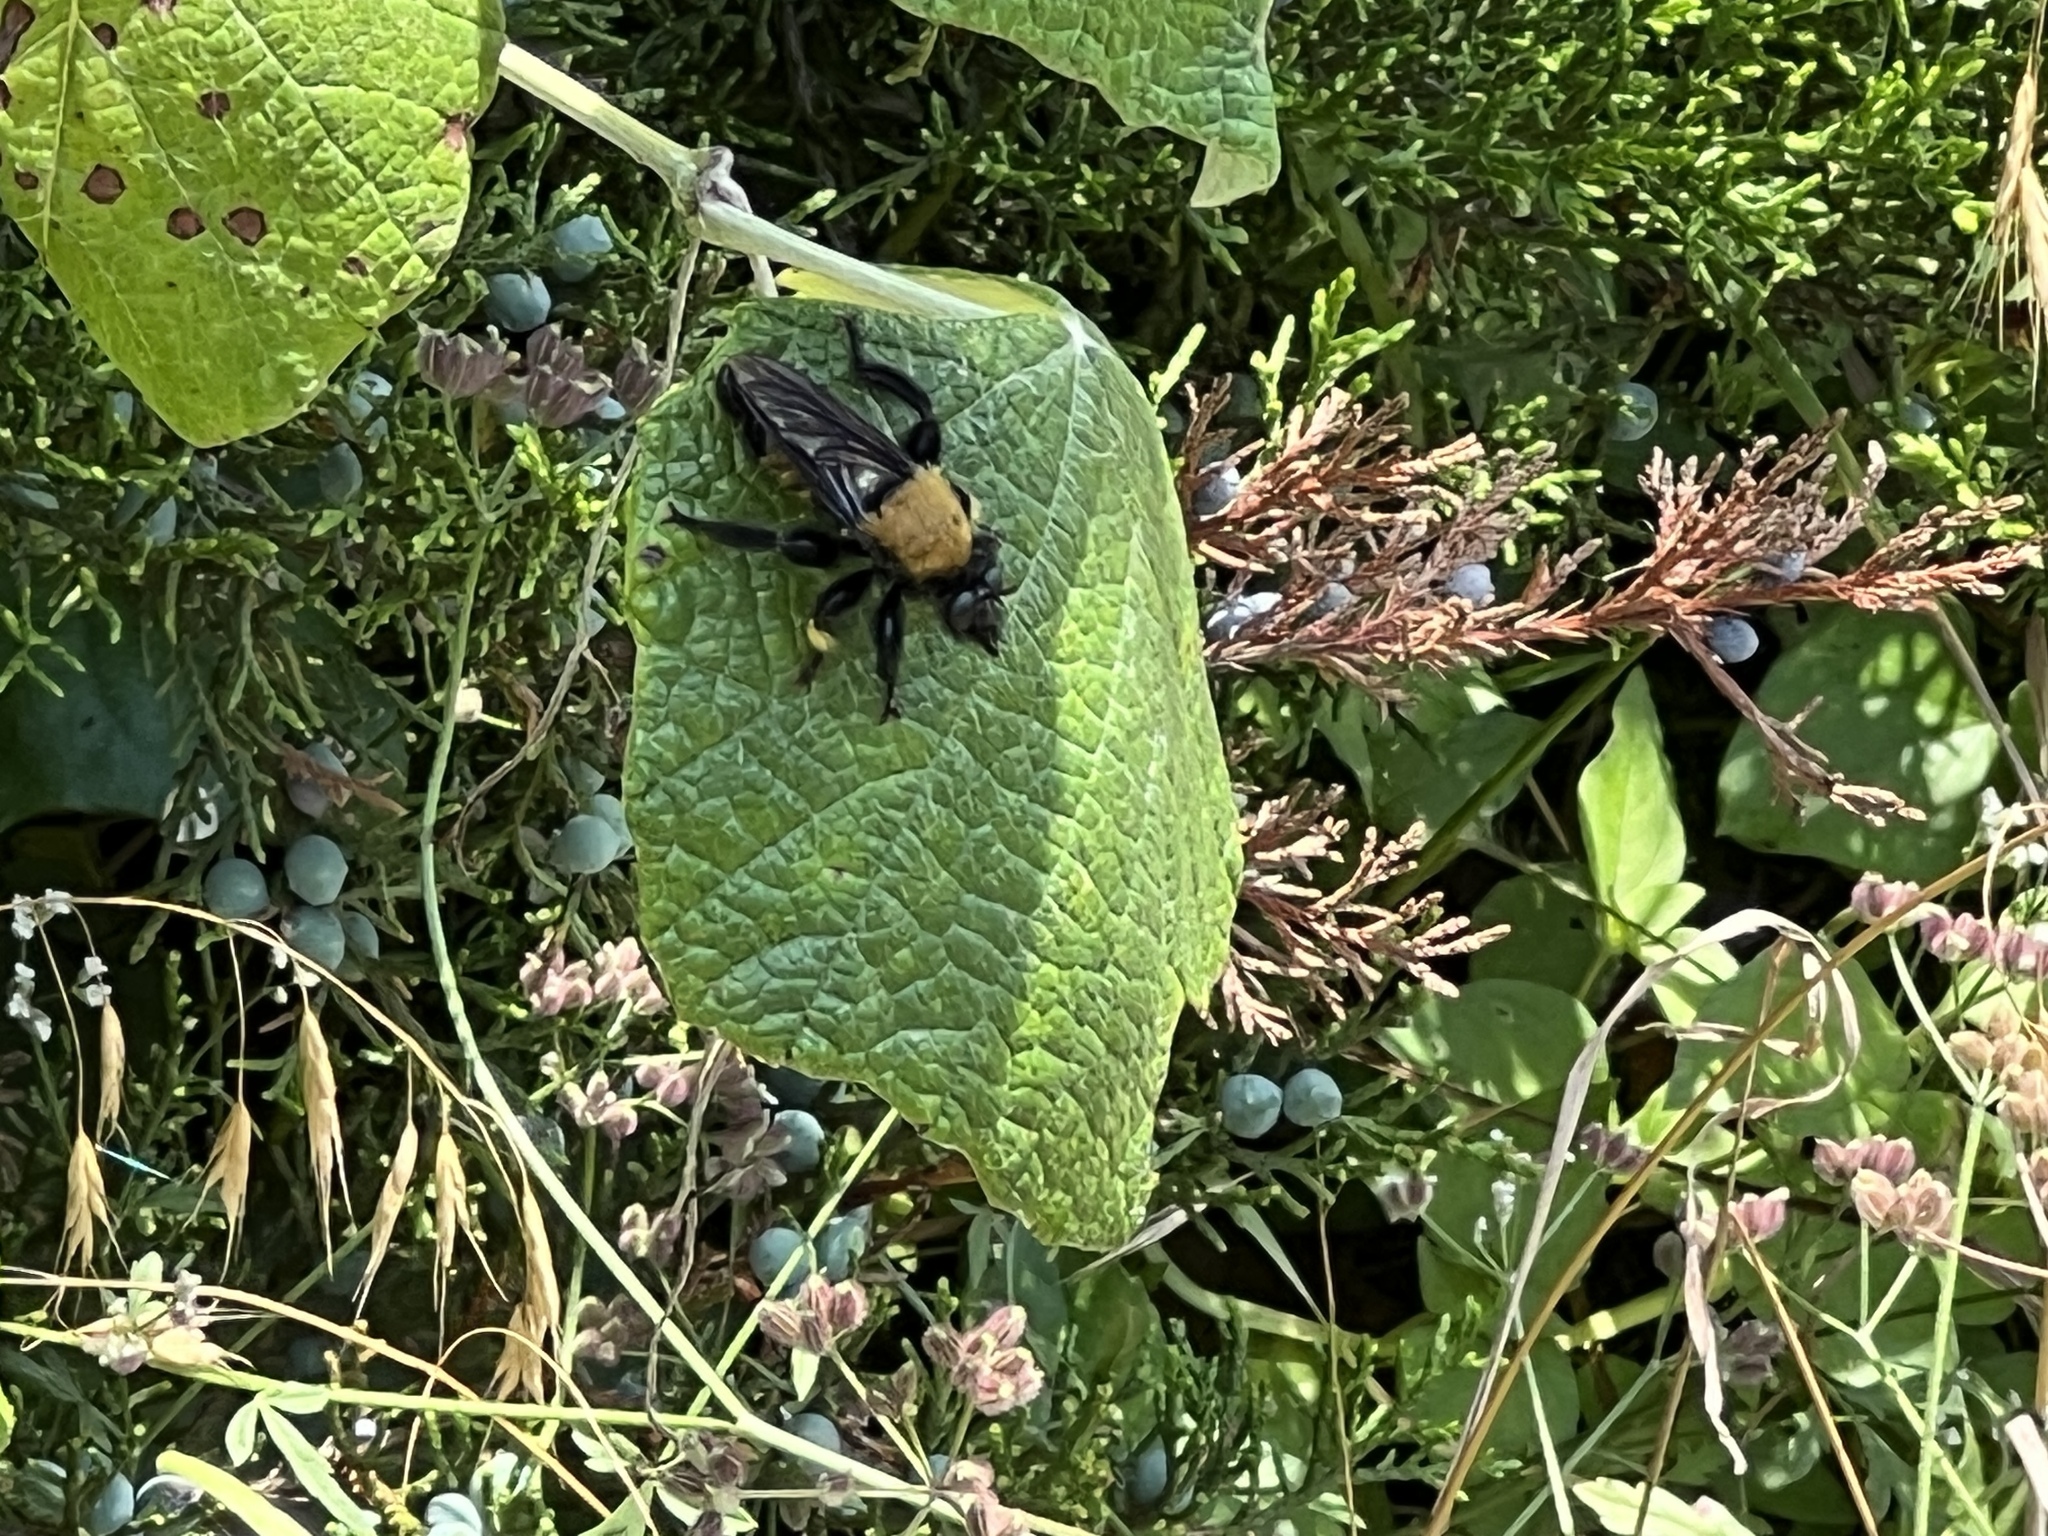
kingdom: Animalia
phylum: Arthropoda
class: Insecta
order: Diptera
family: Asilidae
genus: Laphria
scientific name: Laphria macquarti
